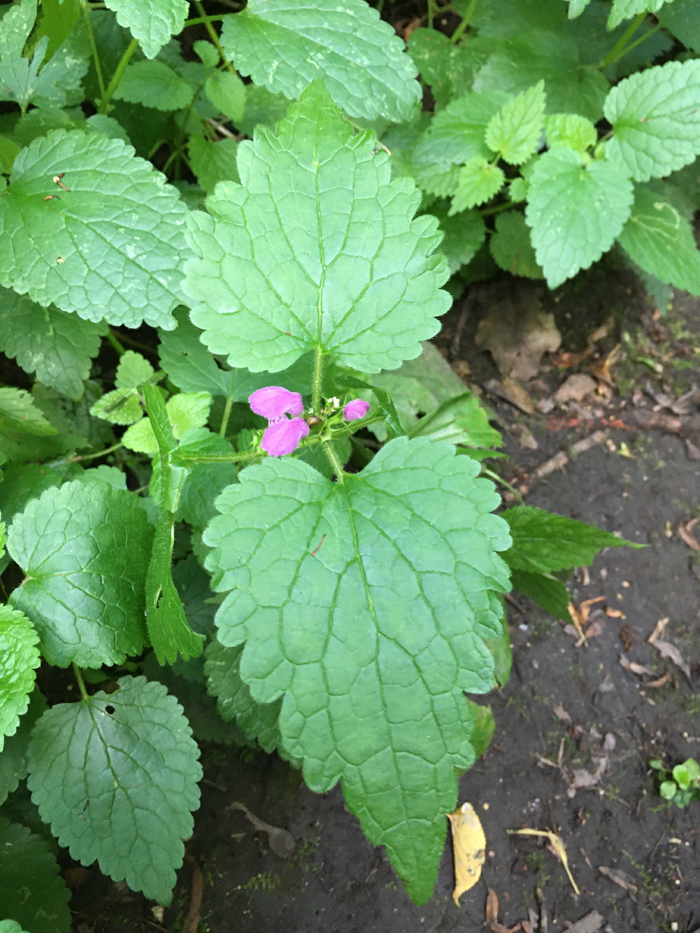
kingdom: Plantae
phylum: Tracheophyta
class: Magnoliopsida
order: Lamiales
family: Lamiaceae
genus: Lamium
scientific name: Lamium maculatum
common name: Spotted dead-nettle
